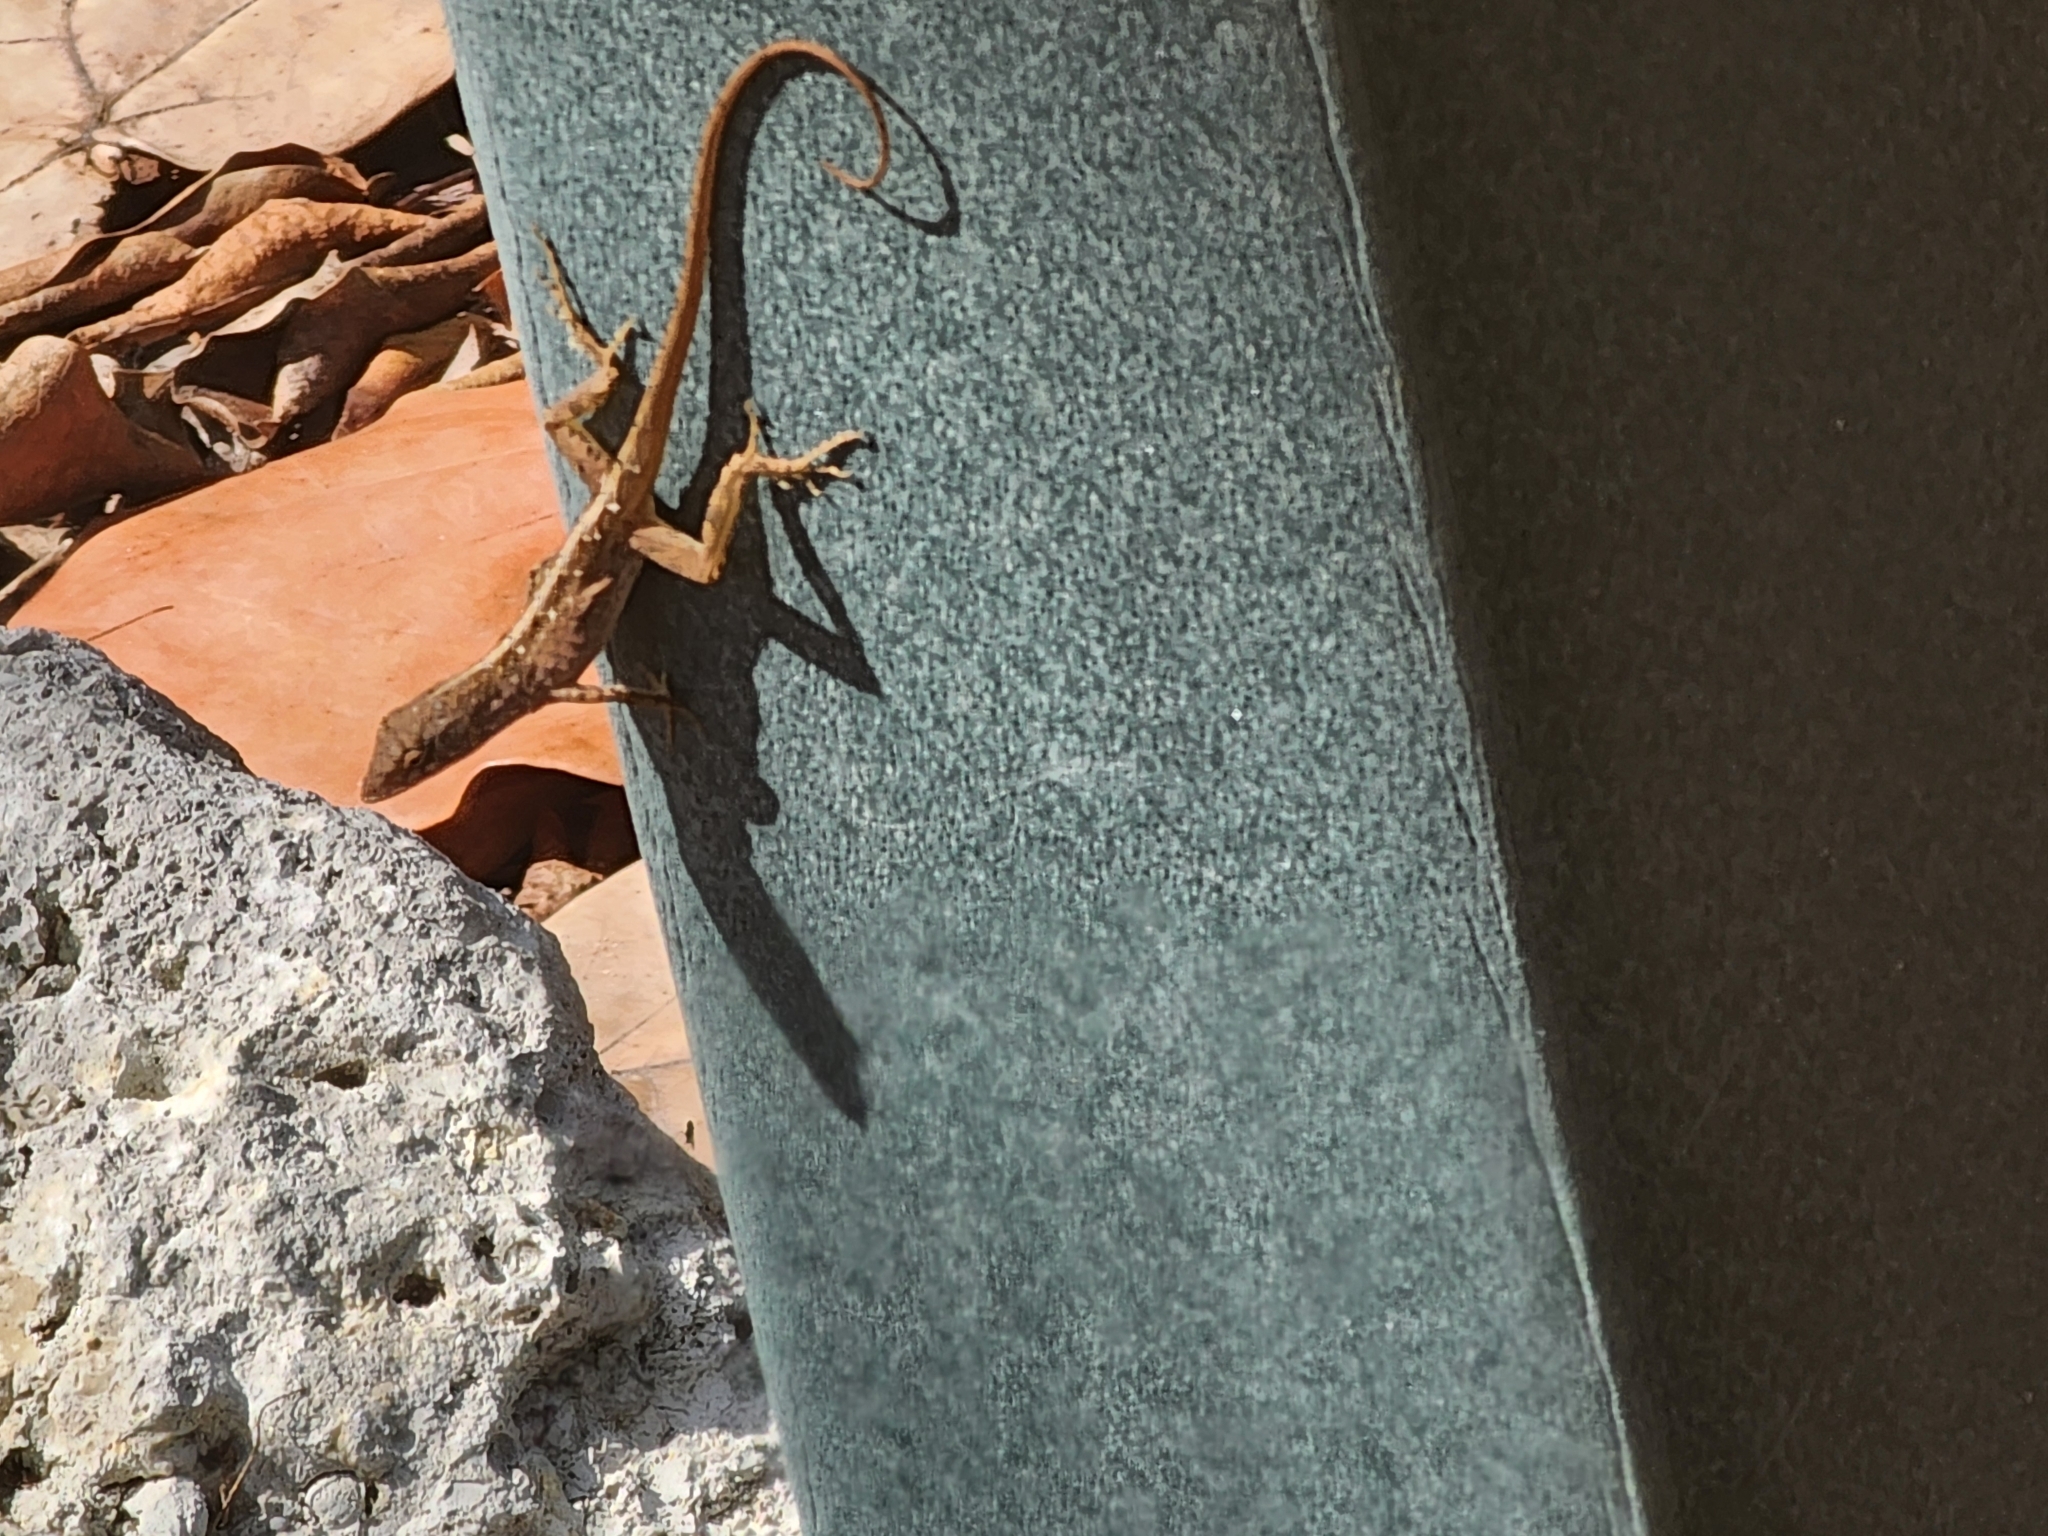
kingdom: Animalia
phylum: Chordata
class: Squamata
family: Dactyloidae
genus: Anolis
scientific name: Anolis sagrei
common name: Brown anole
